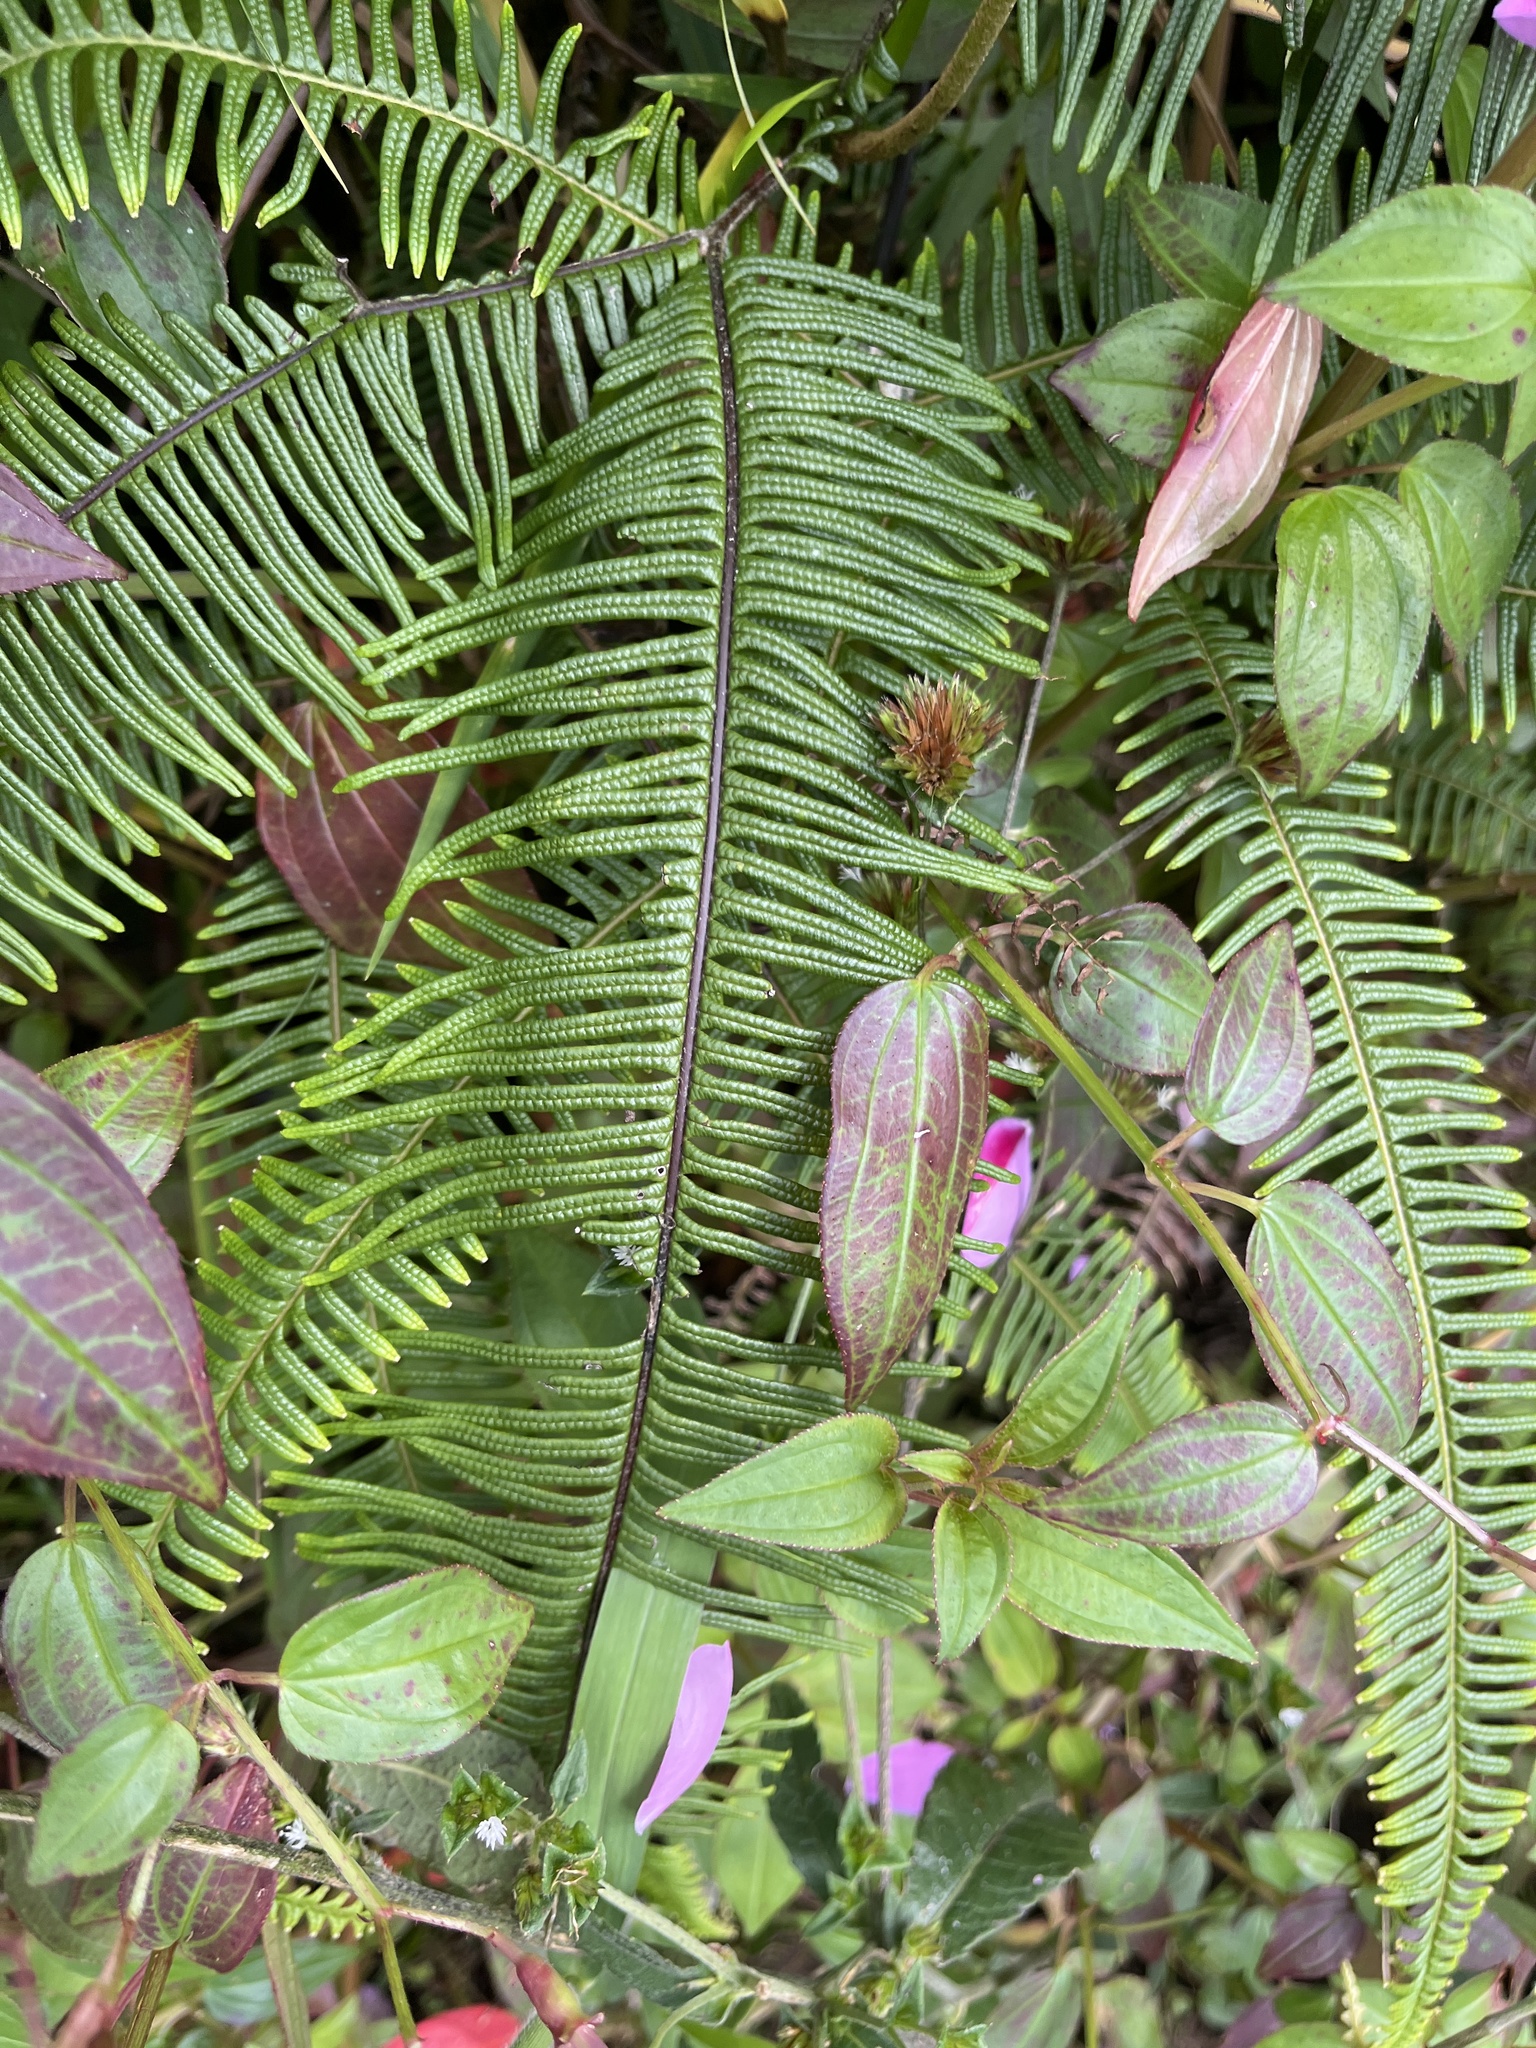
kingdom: Plantae
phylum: Tracheophyta
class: Magnoliopsida
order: Myrtales
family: Melastomataceae
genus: Arthrostemma
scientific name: Arthrostemma ciliatum
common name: Everblooming eavender
